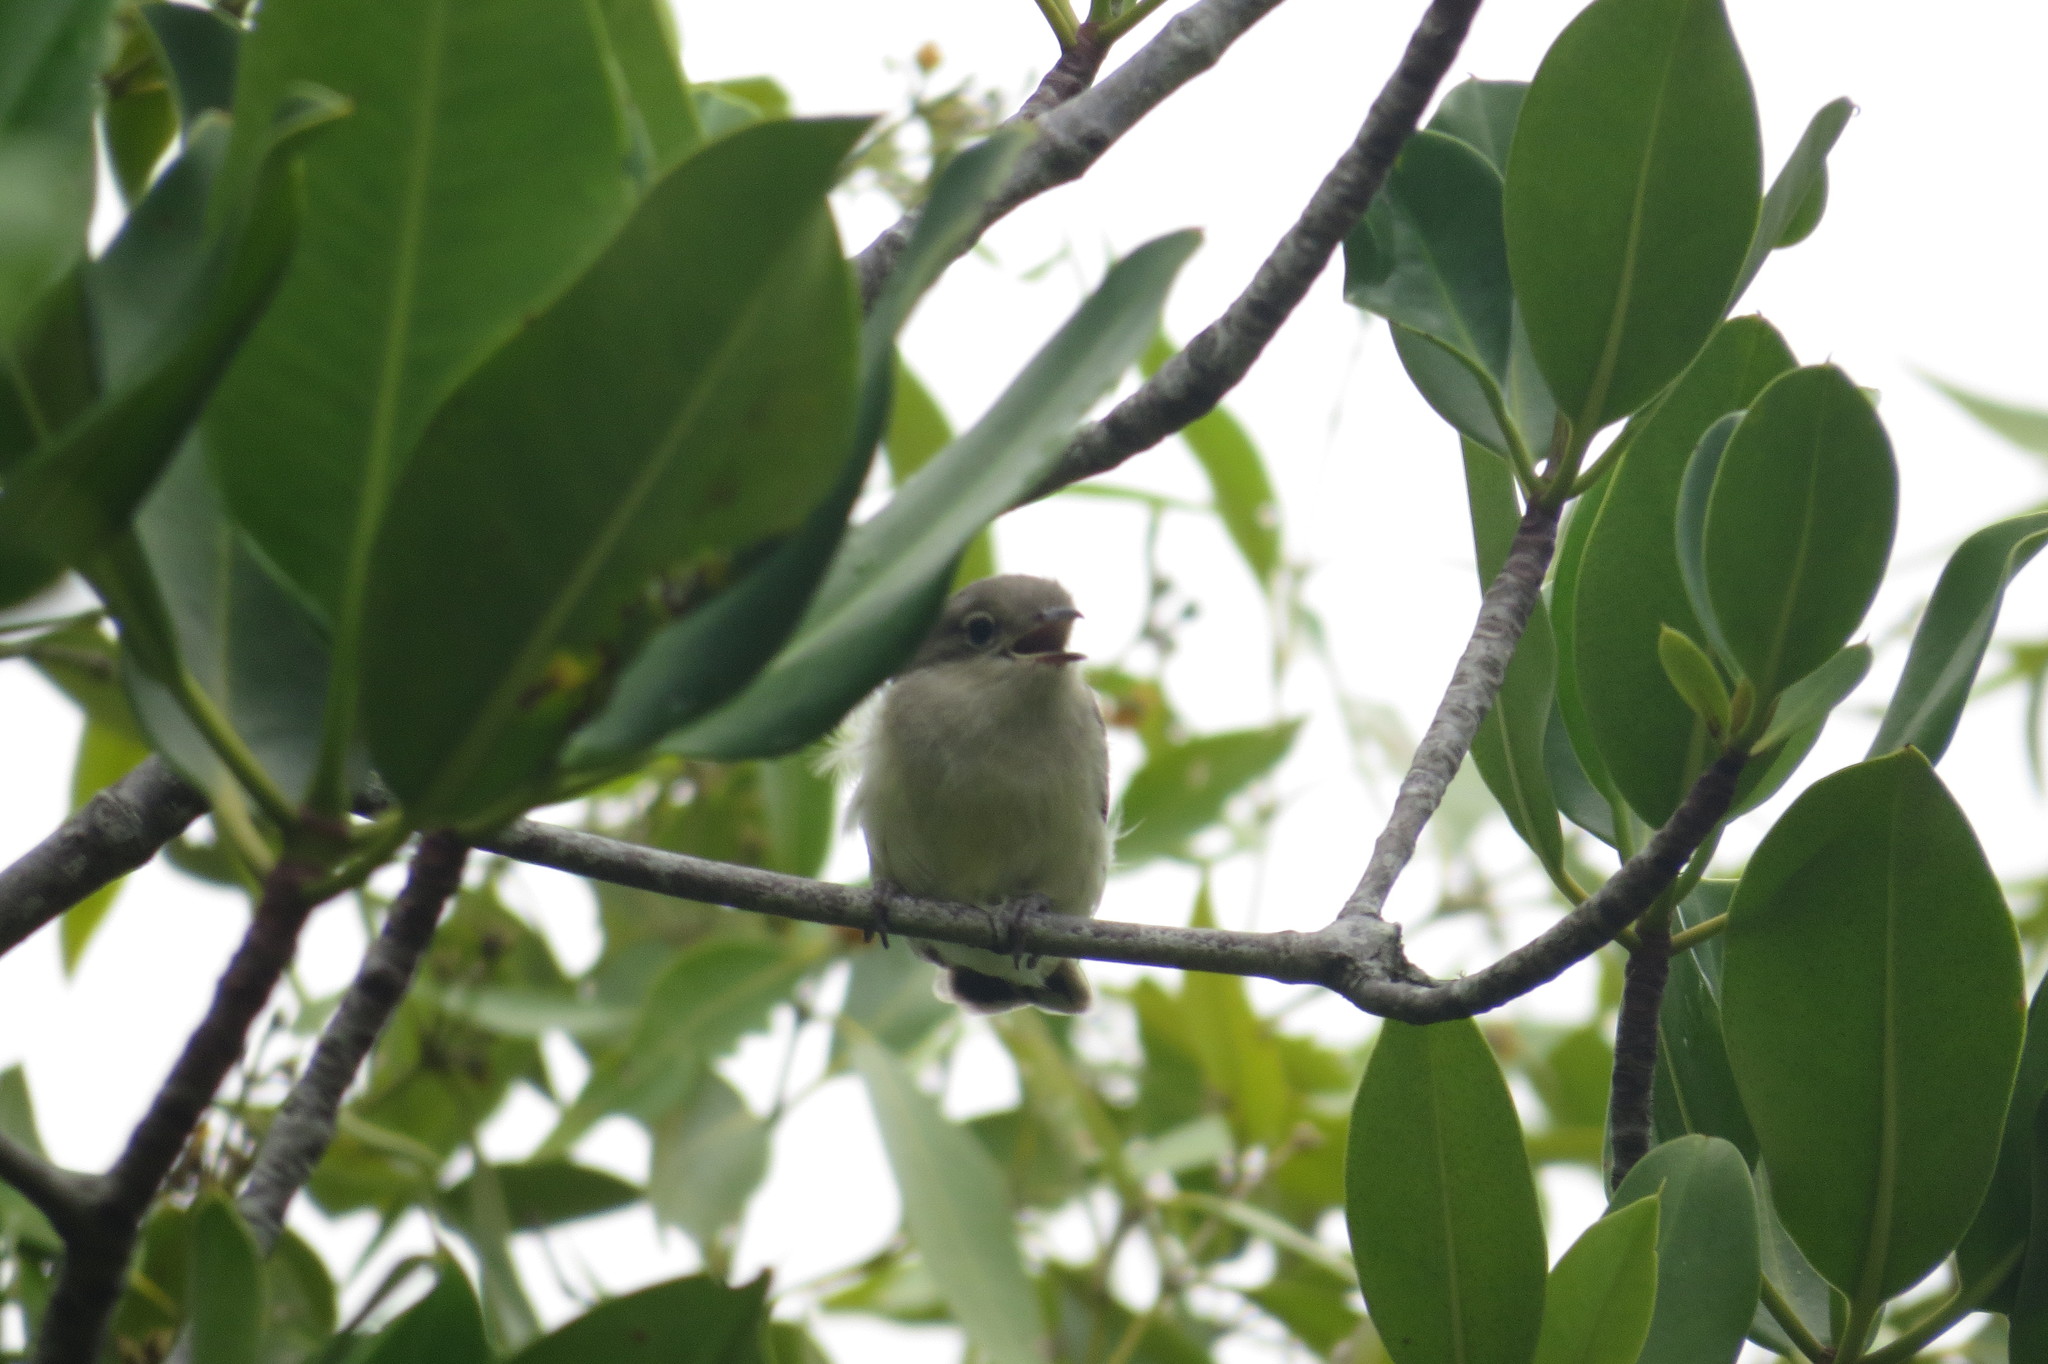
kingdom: Animalia
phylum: Chordata
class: Aves
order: Passeriformes
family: Acanthizidae
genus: Gerygone
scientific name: Gerygone levigaster
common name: Mangrove gerygone
